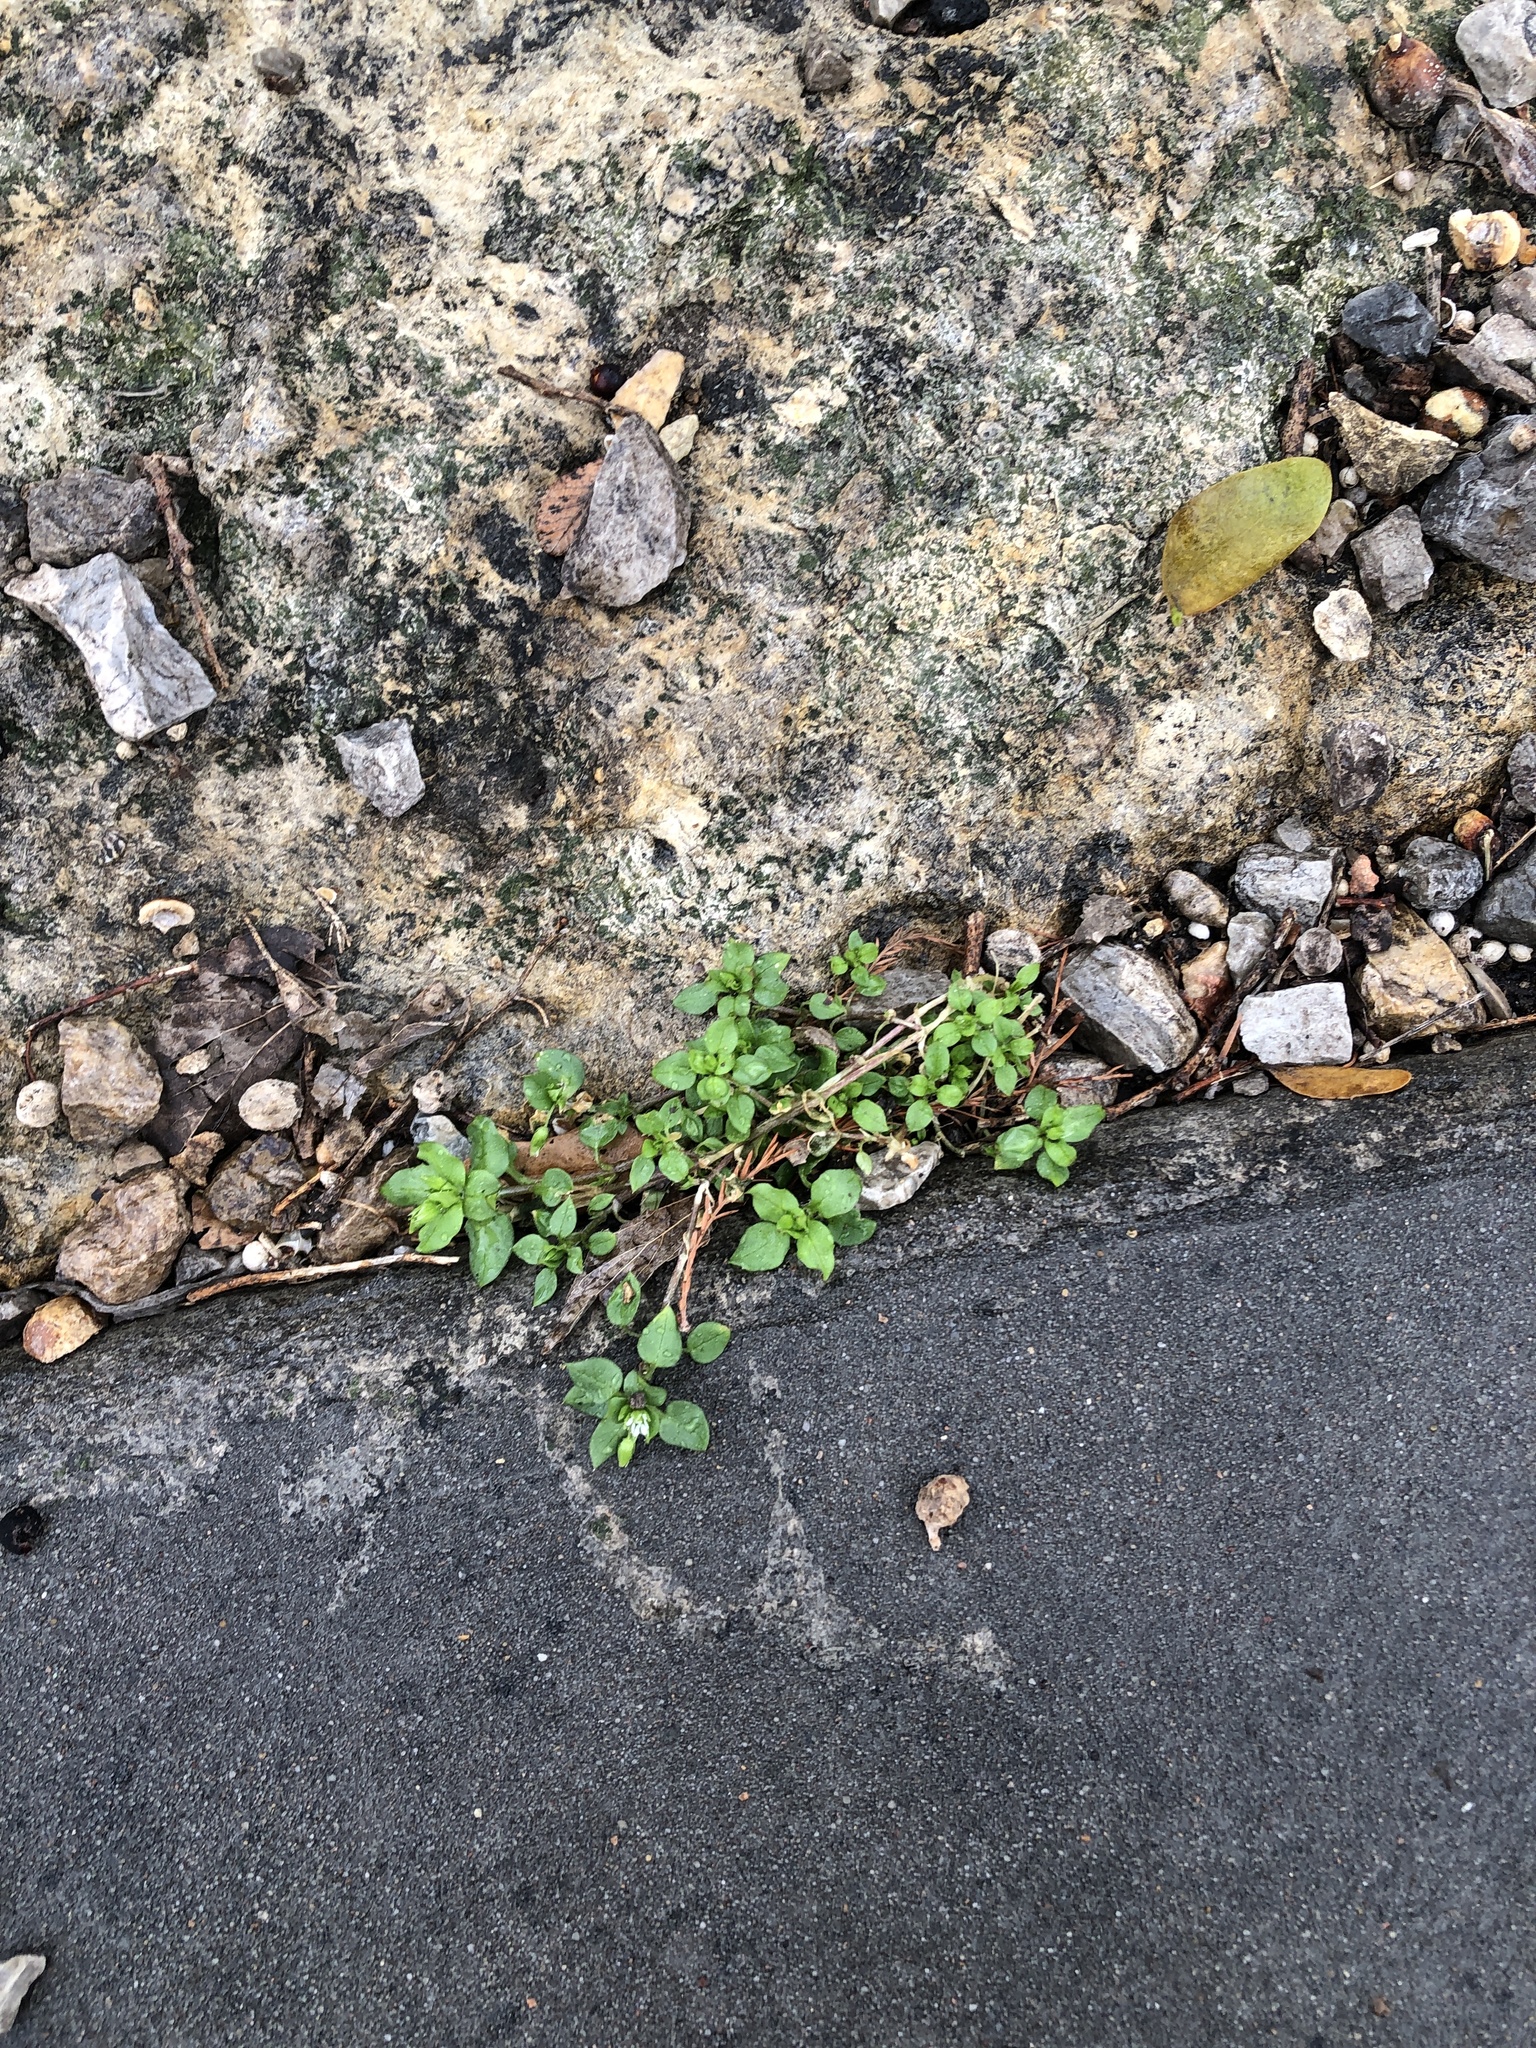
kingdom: Plantae
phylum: Tracheophyta
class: Magnoliopsida
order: Caryophyllales
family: Caryophyllaceae
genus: Stellaria
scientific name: Stellaria media
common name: Common chickweed
